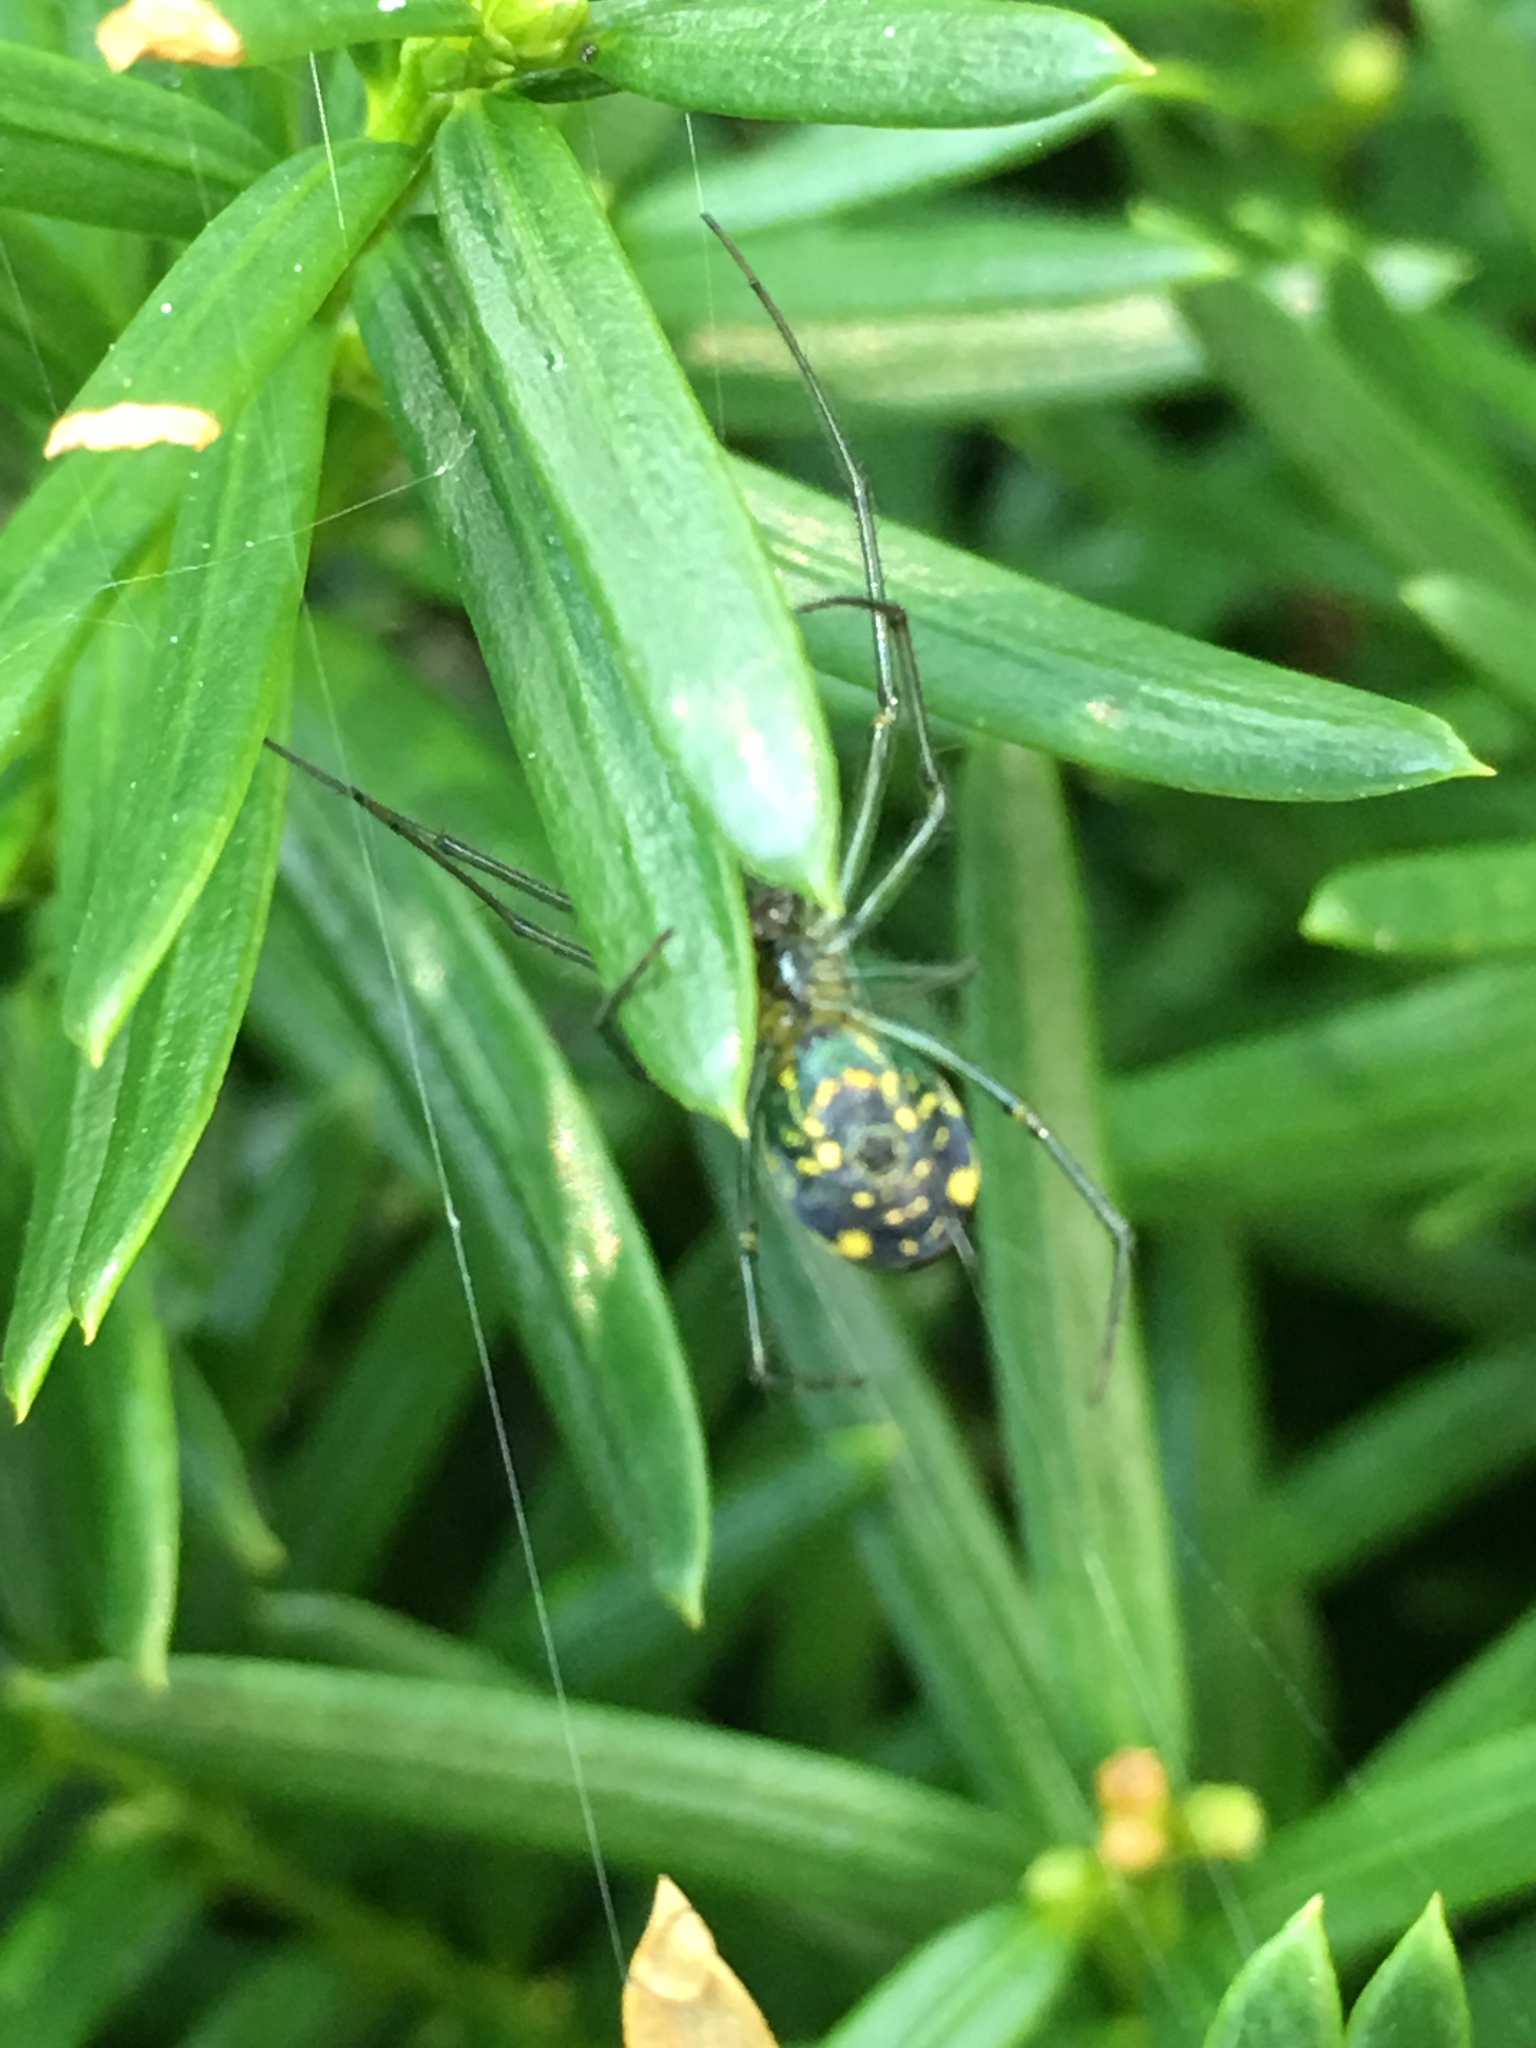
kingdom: Animalia
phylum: Arthropoda
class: Arachnida
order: Araneae
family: Tetragnathidae
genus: Leucauge
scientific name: Leucauge venusta
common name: Longjawed orb weavers
